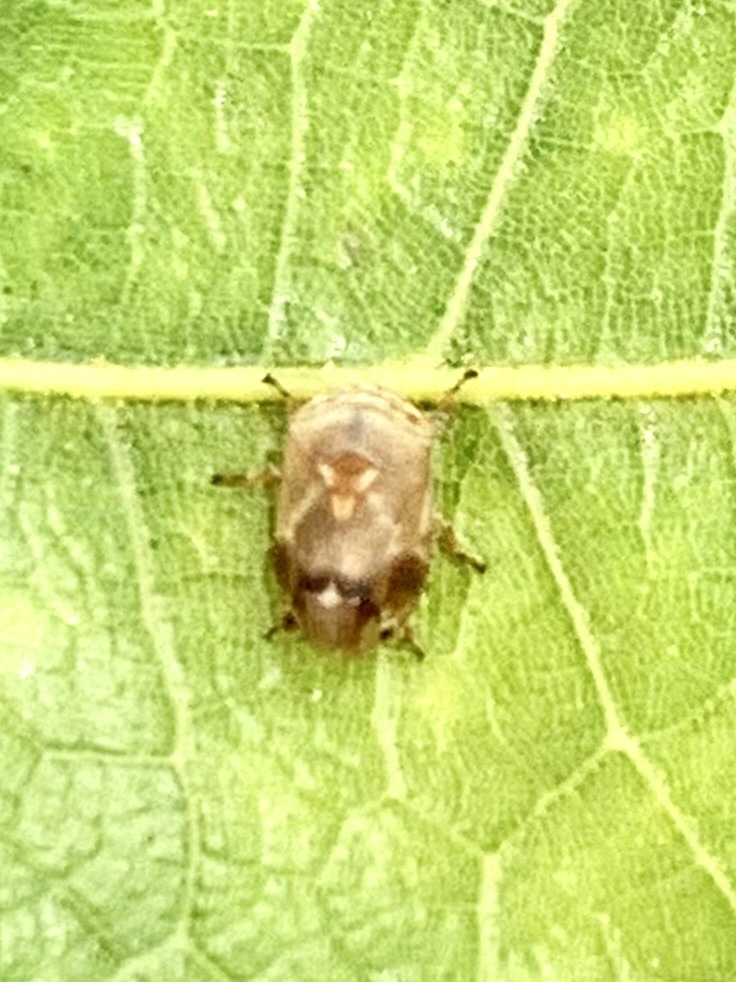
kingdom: Animalia
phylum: Arthropoda
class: Insecta
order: Hemiptera
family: Clastopteridae
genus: Clastoptera
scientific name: Clastoptera querci
